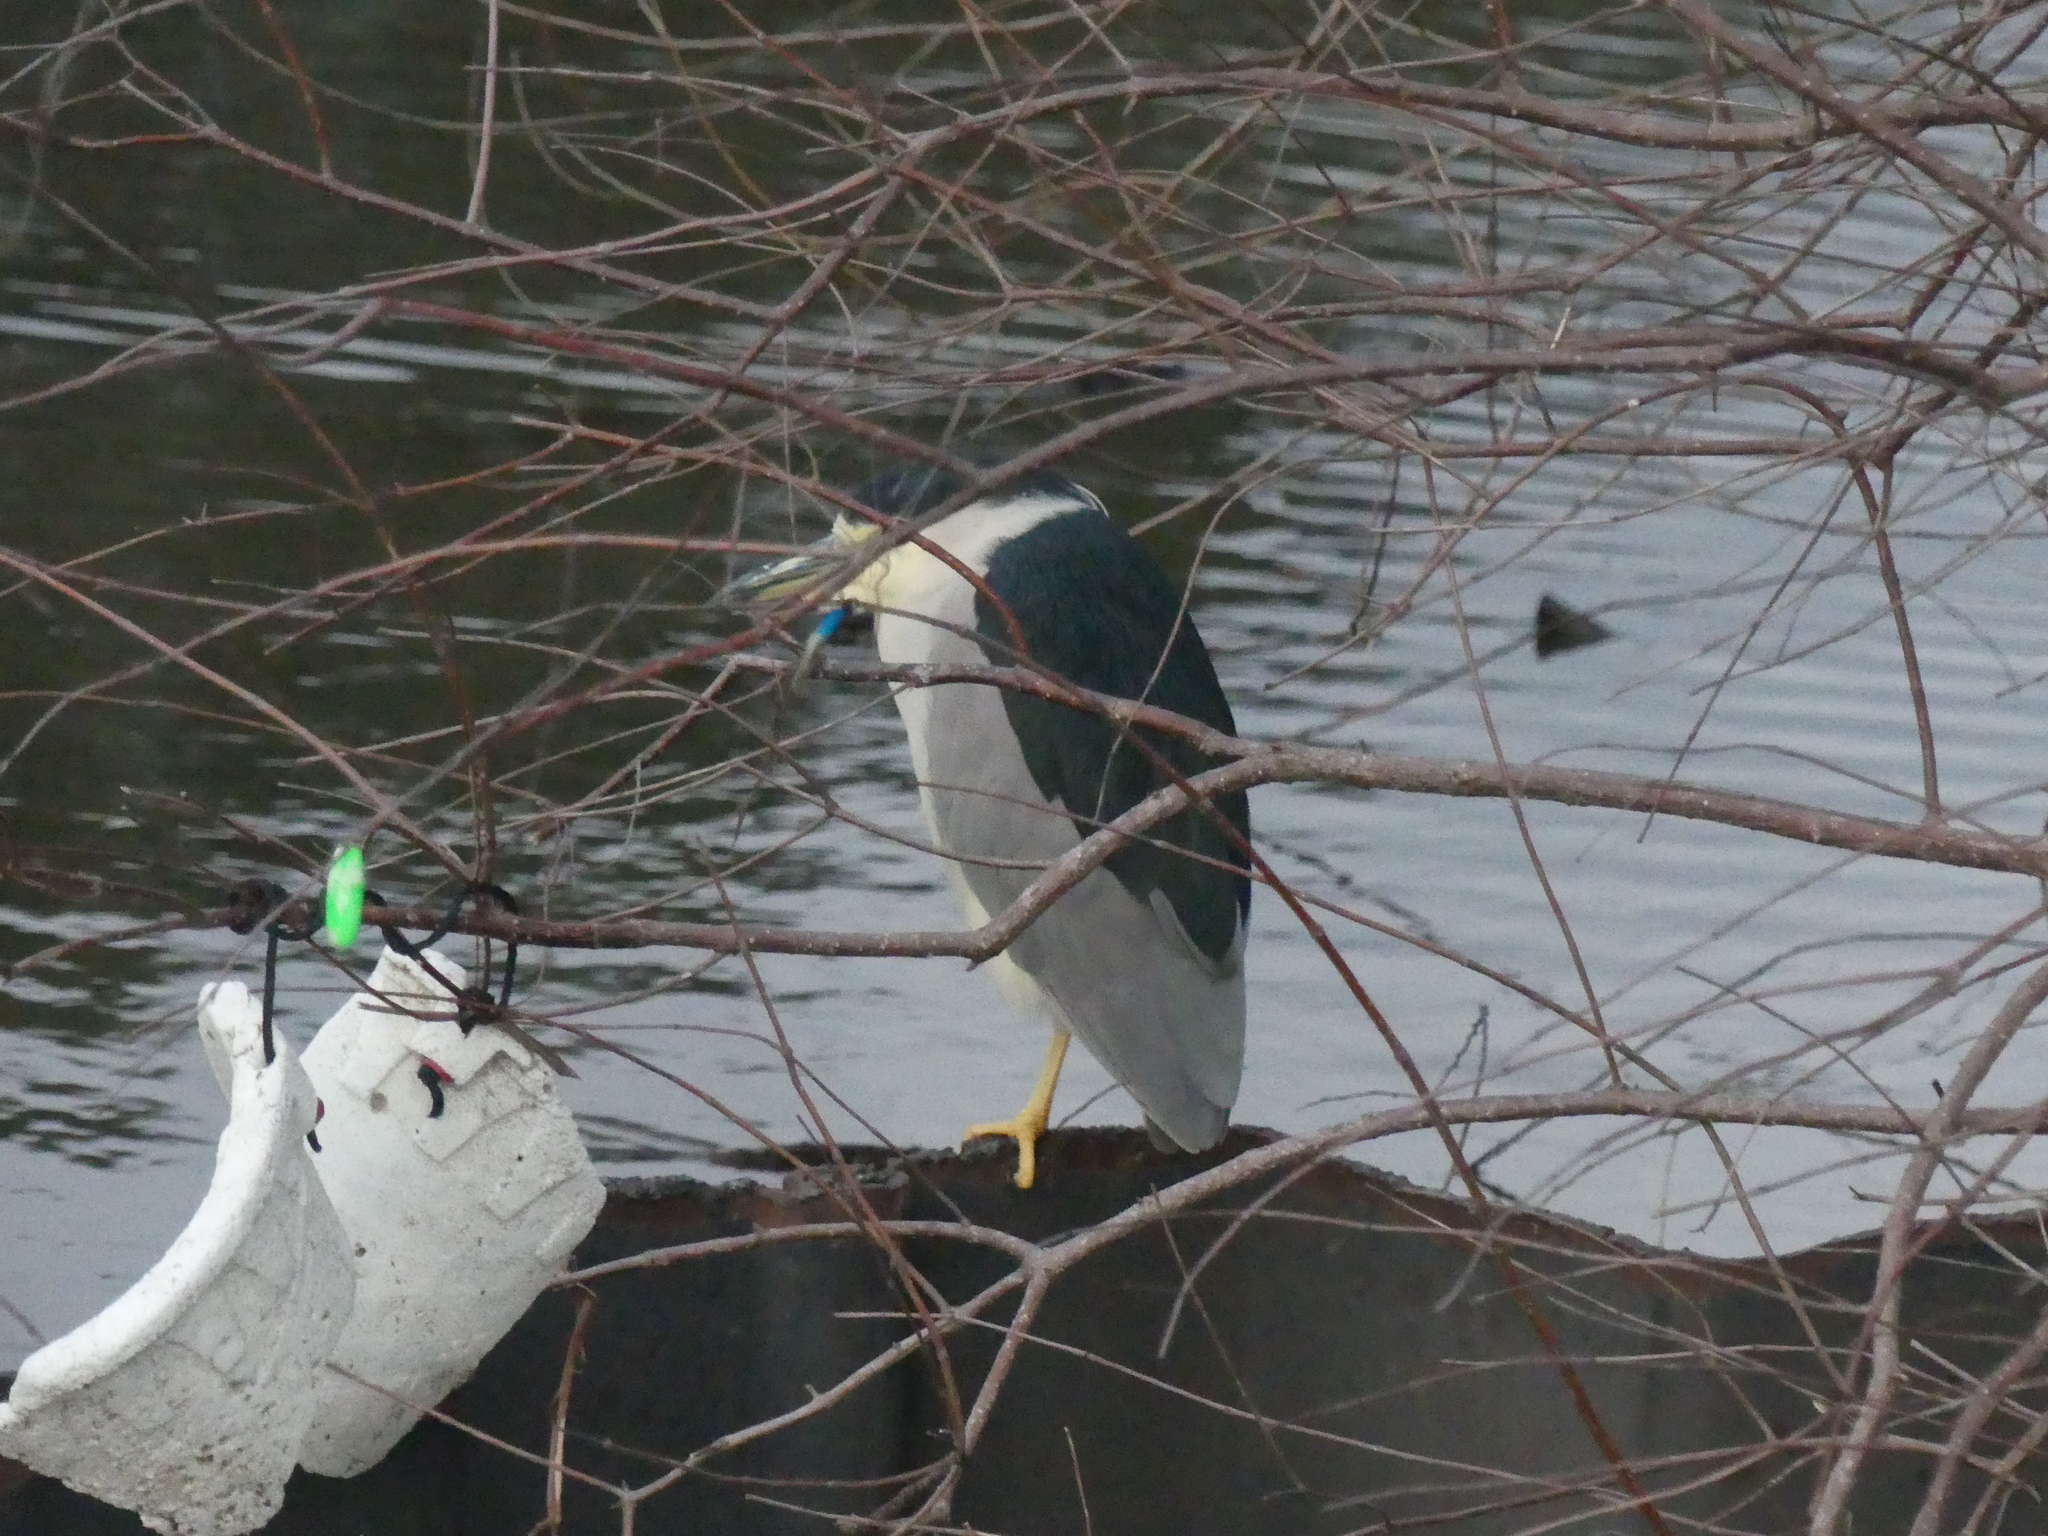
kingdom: Animalia
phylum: Chordata
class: Aves
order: Pelecaniformes
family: Ardeidae
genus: Nycticorax
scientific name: Nycticorax nycticorax
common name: Black-crowned night heron
